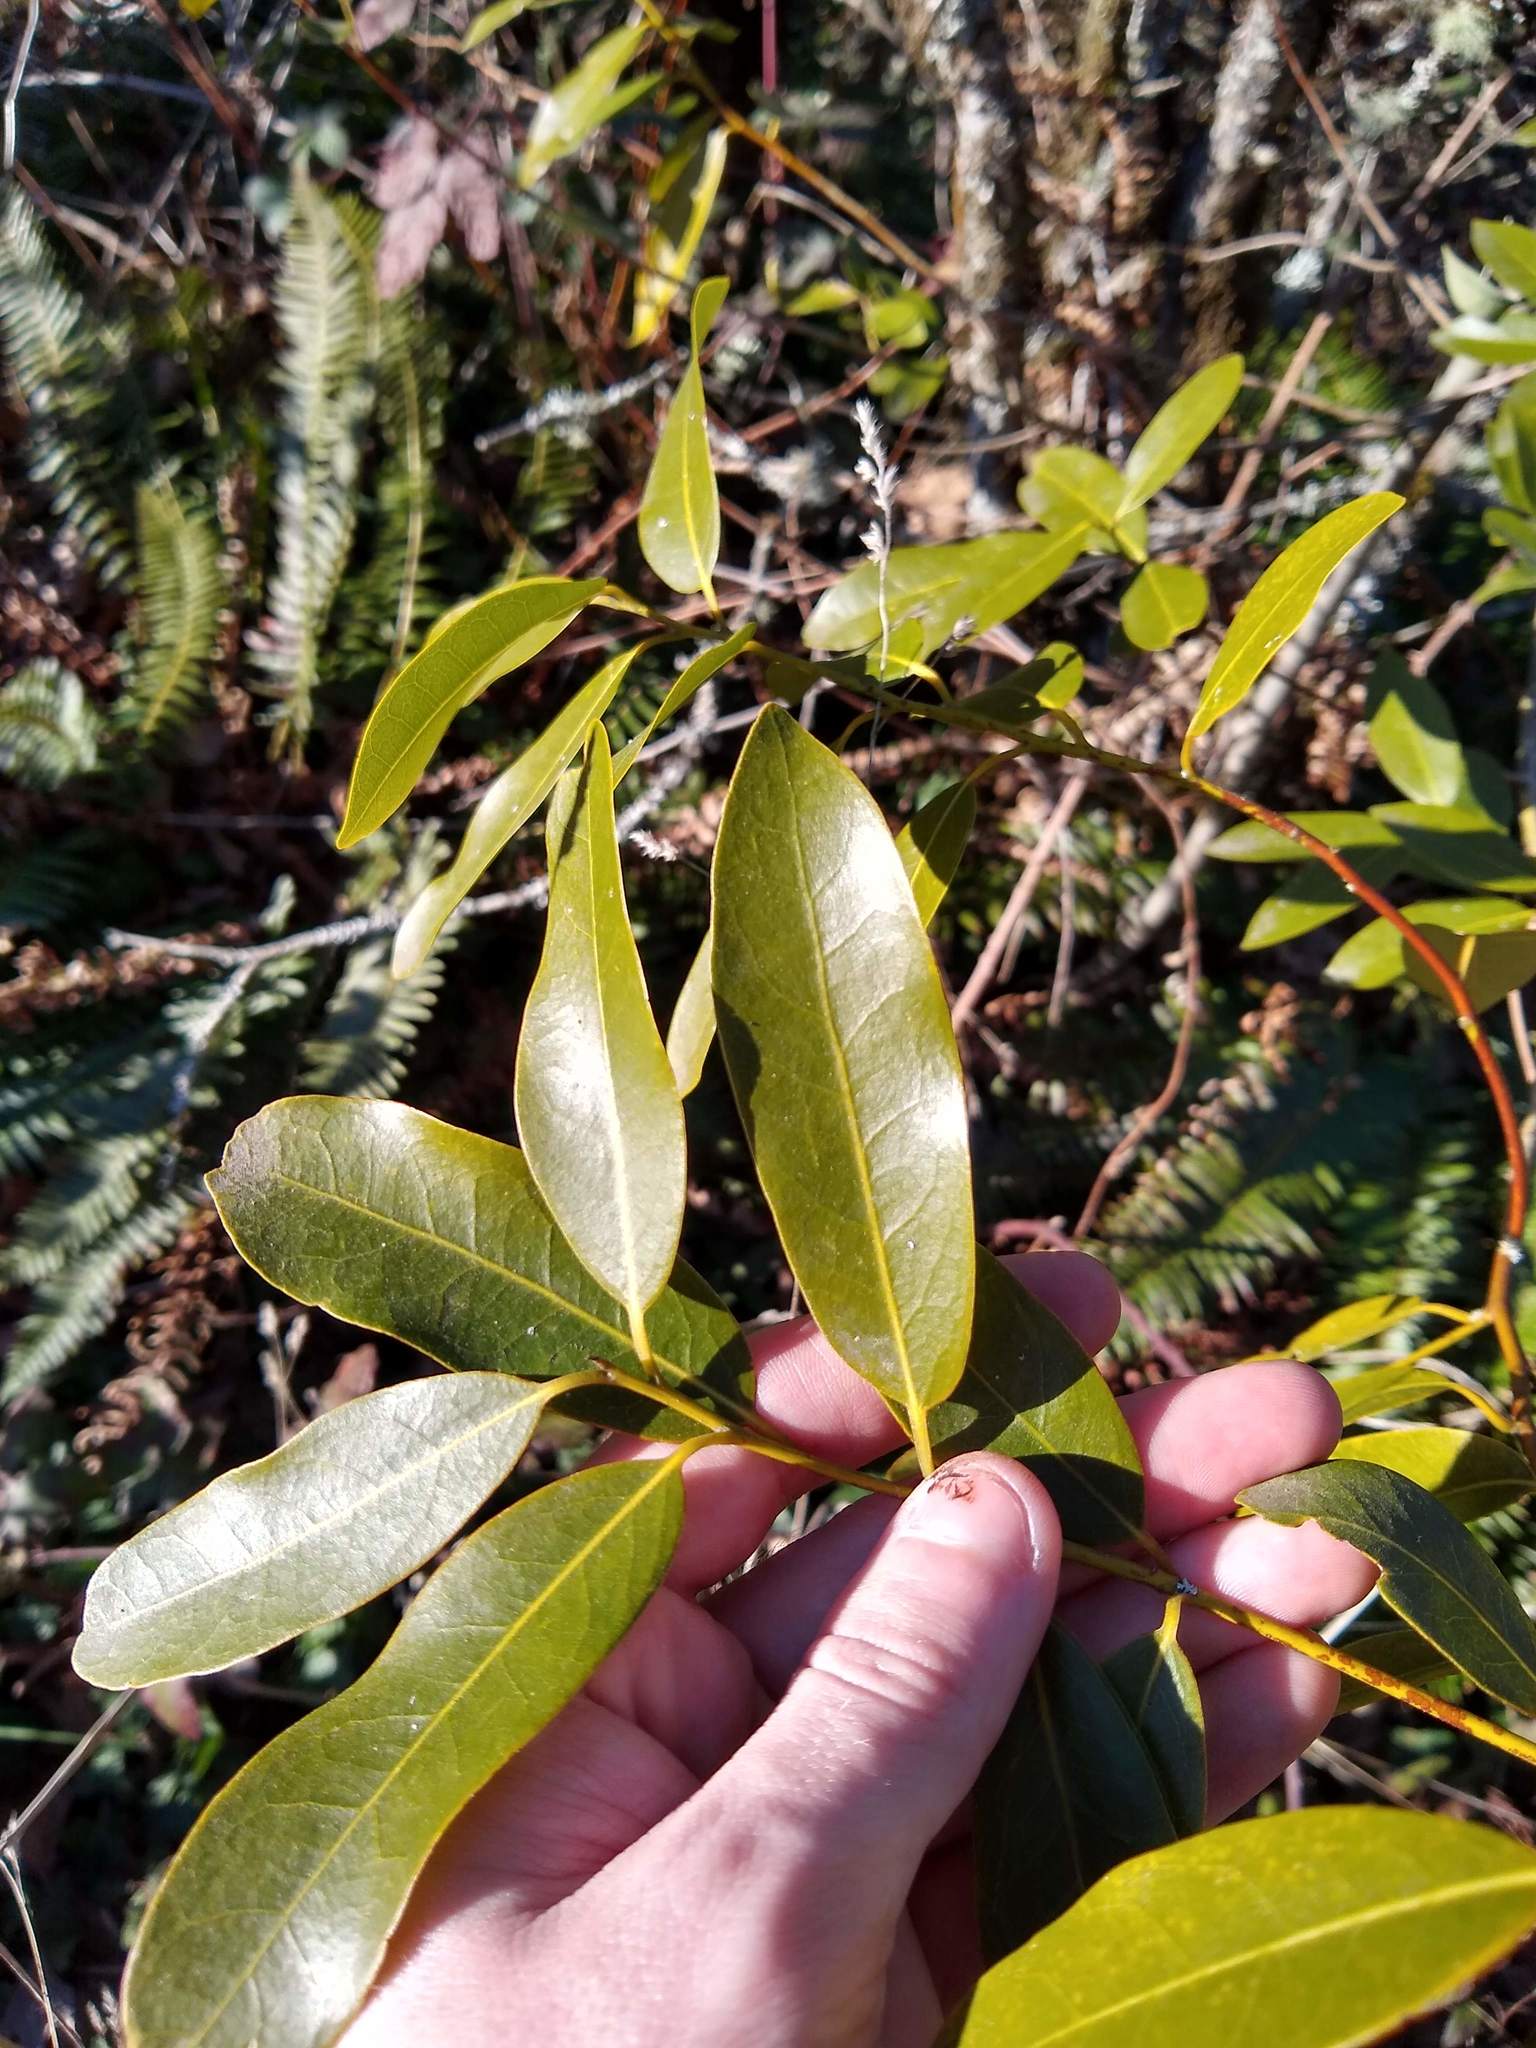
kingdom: Plantae
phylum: Tracheophyta
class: Magnoliopsida
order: Laurales
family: Lauraceae
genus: Umbellularia
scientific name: Umbellularia californica
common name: California bay
